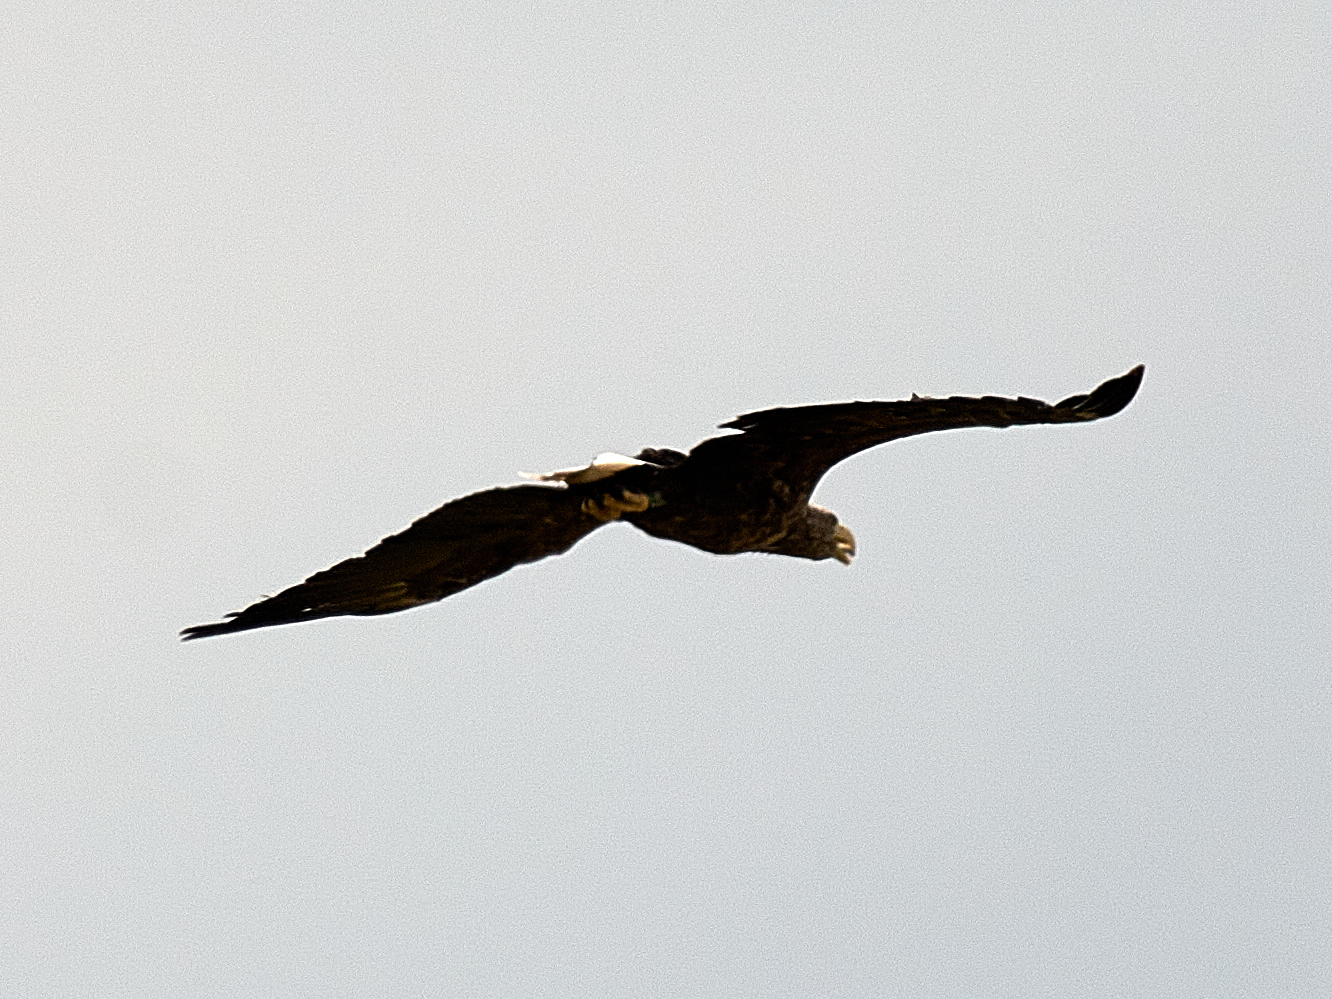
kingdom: Animalia
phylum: Chordata
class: Aves
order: Accipitriformes
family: Accipitridae
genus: Haliaeetus
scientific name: Haliaeetus albicilla
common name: White-tailed eagle
